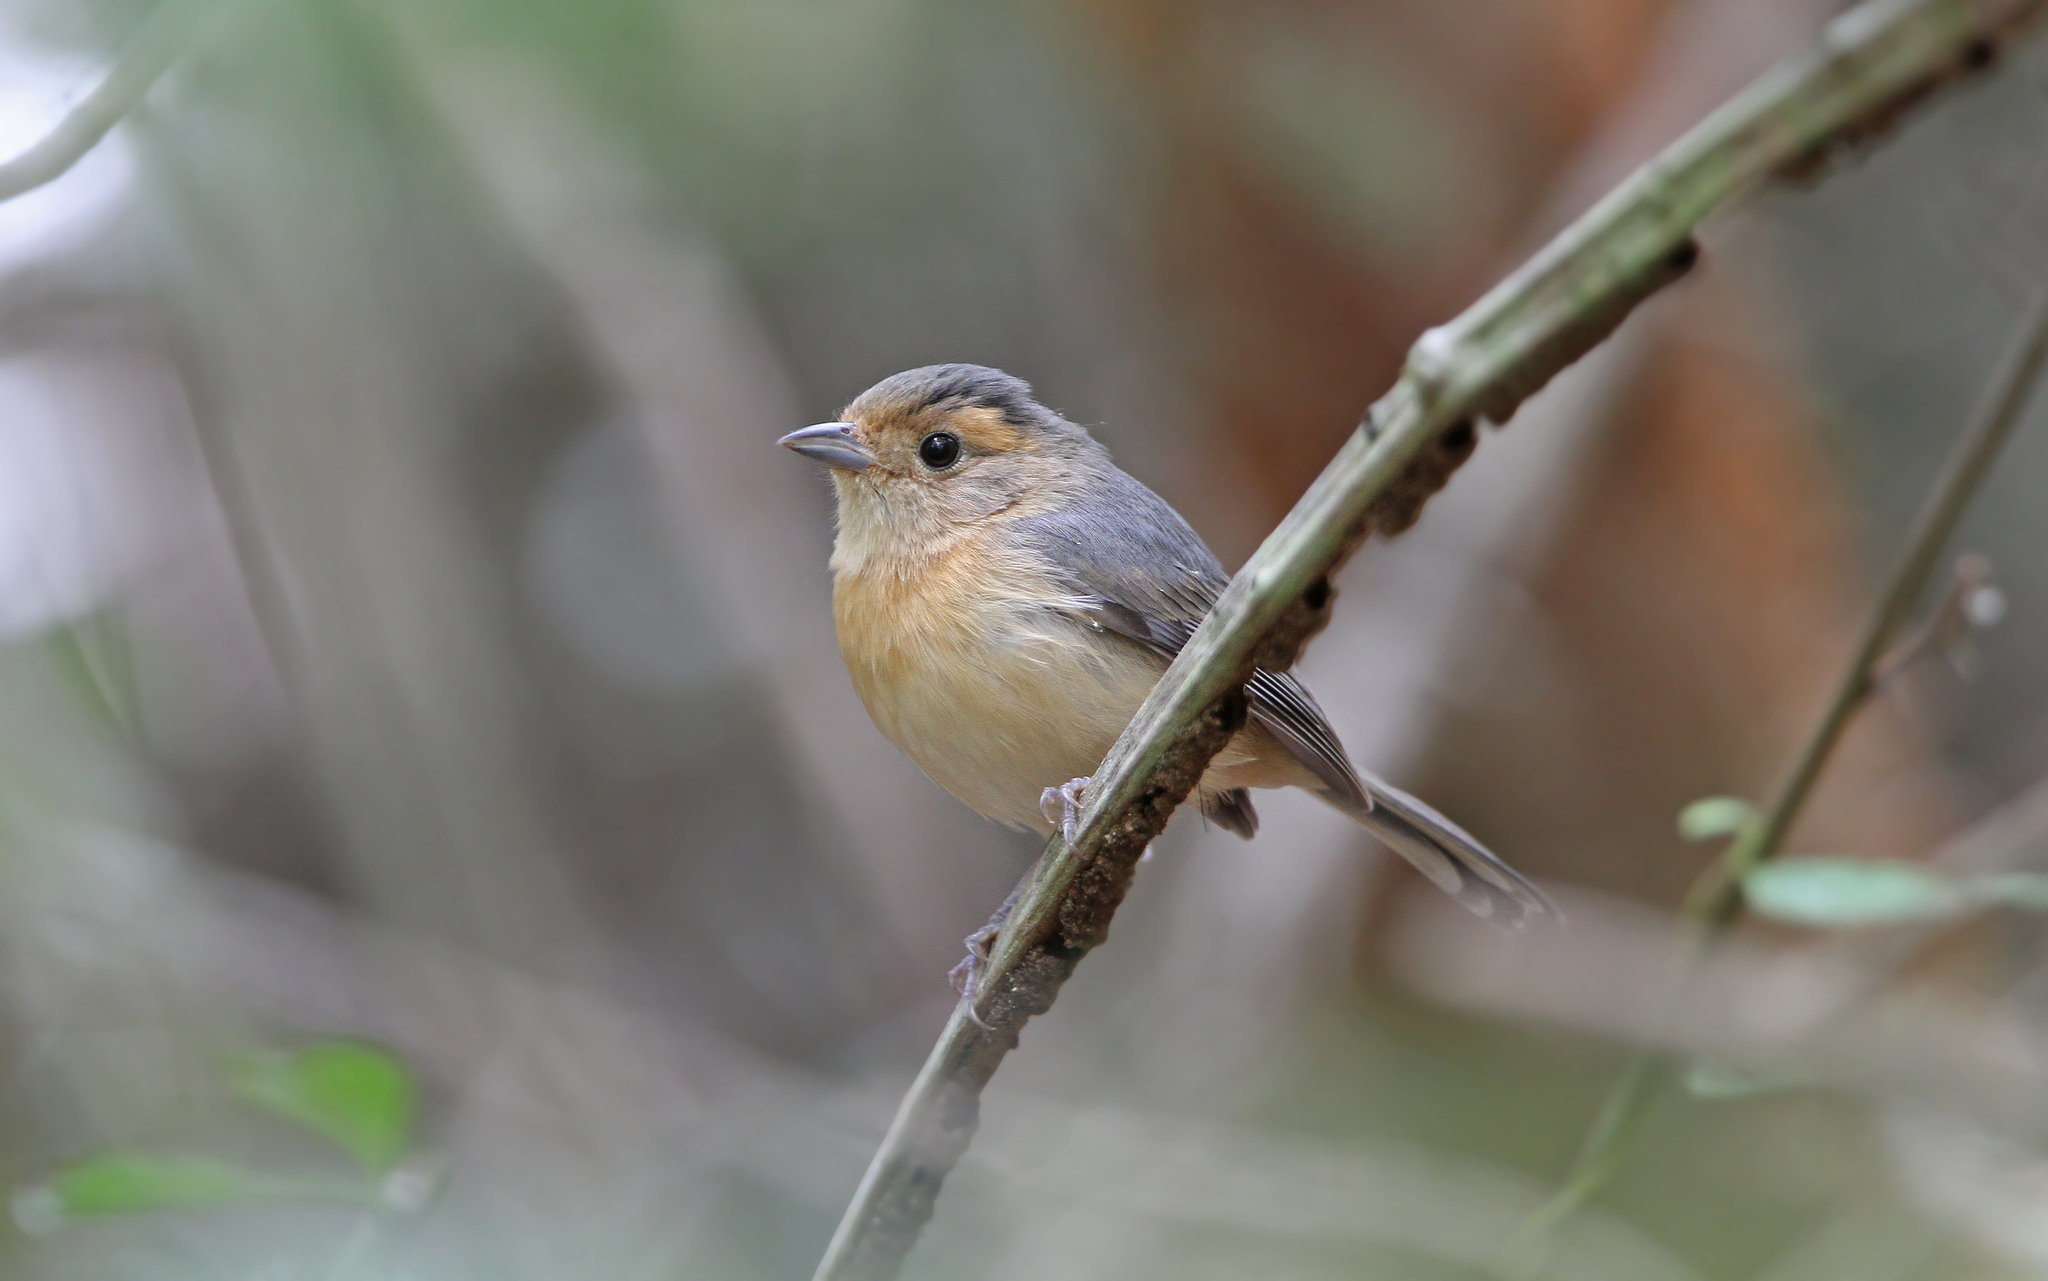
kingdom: Animalia
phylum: Chordata
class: Aves
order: Passeriformes
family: Cardinalidae
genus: Granatellus
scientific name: Granatellus sallaei
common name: Gray-throated chat
